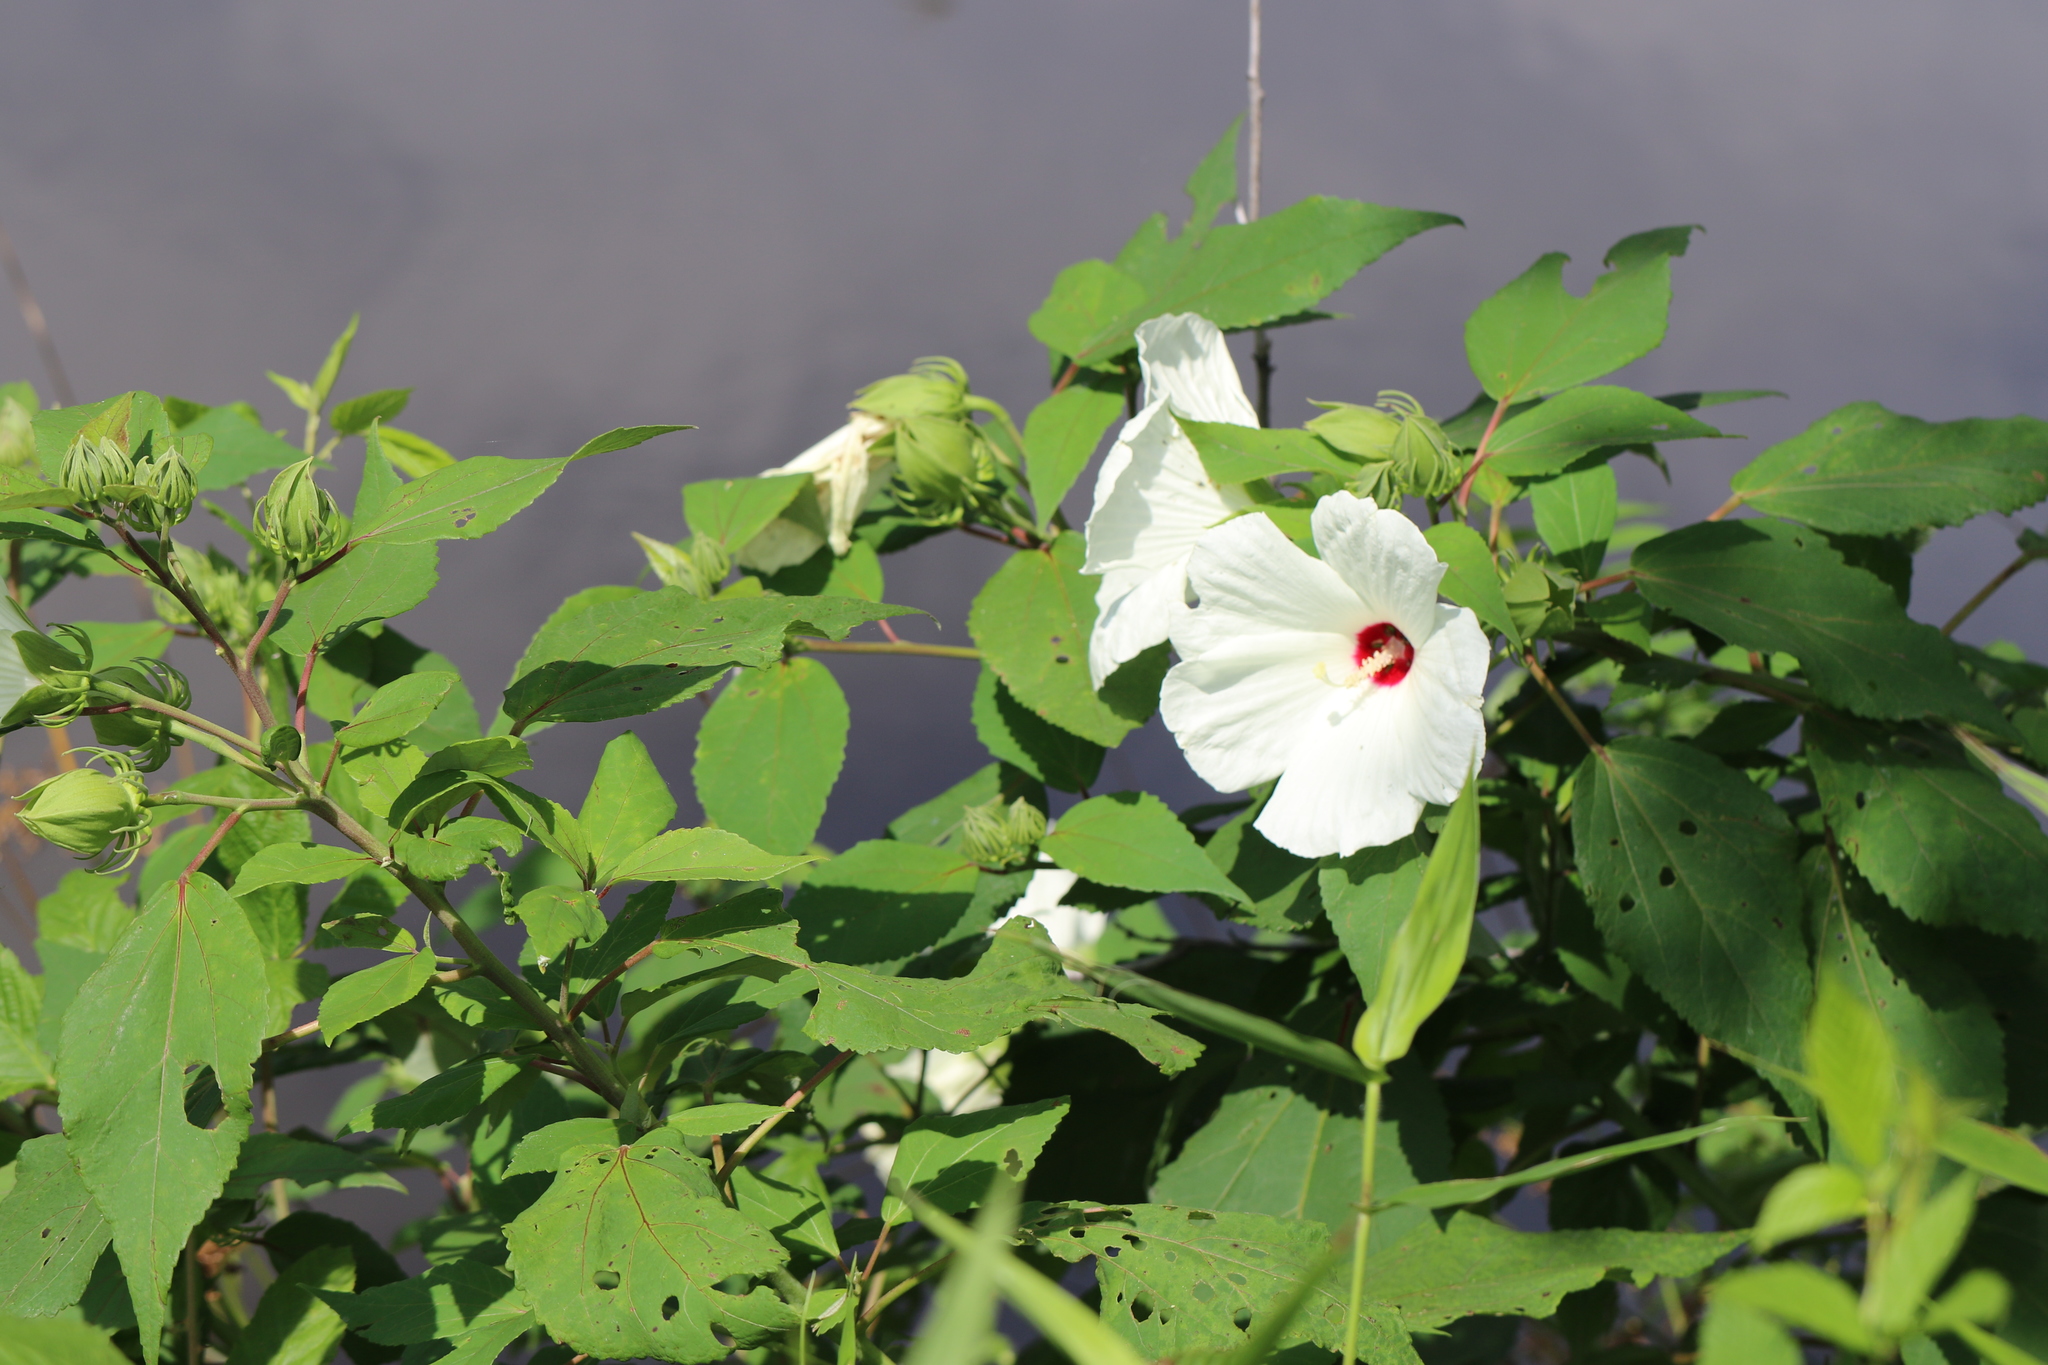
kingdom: Plantae
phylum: Tracheophyta
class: Magnoliopsida
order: Malvales
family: Malvaceae
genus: Hibiscus
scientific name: Hibiscus moscheutos
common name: Common rose-mallow
